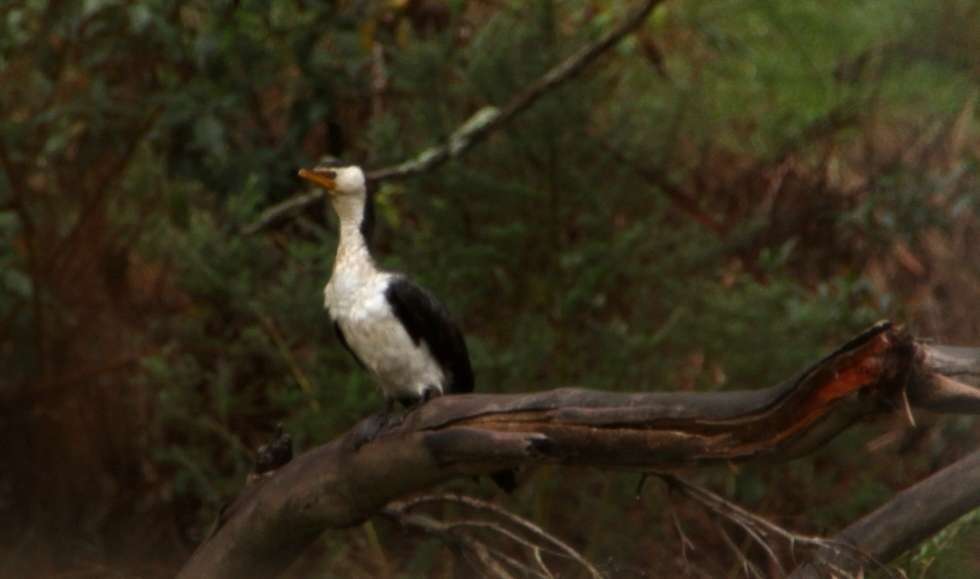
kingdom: Animalia
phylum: Chordata
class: Aves
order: Suliformes
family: Phalacrocoracidae
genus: Microcarbo
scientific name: Microcarbo melanoleucos
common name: Little pied cormorant
